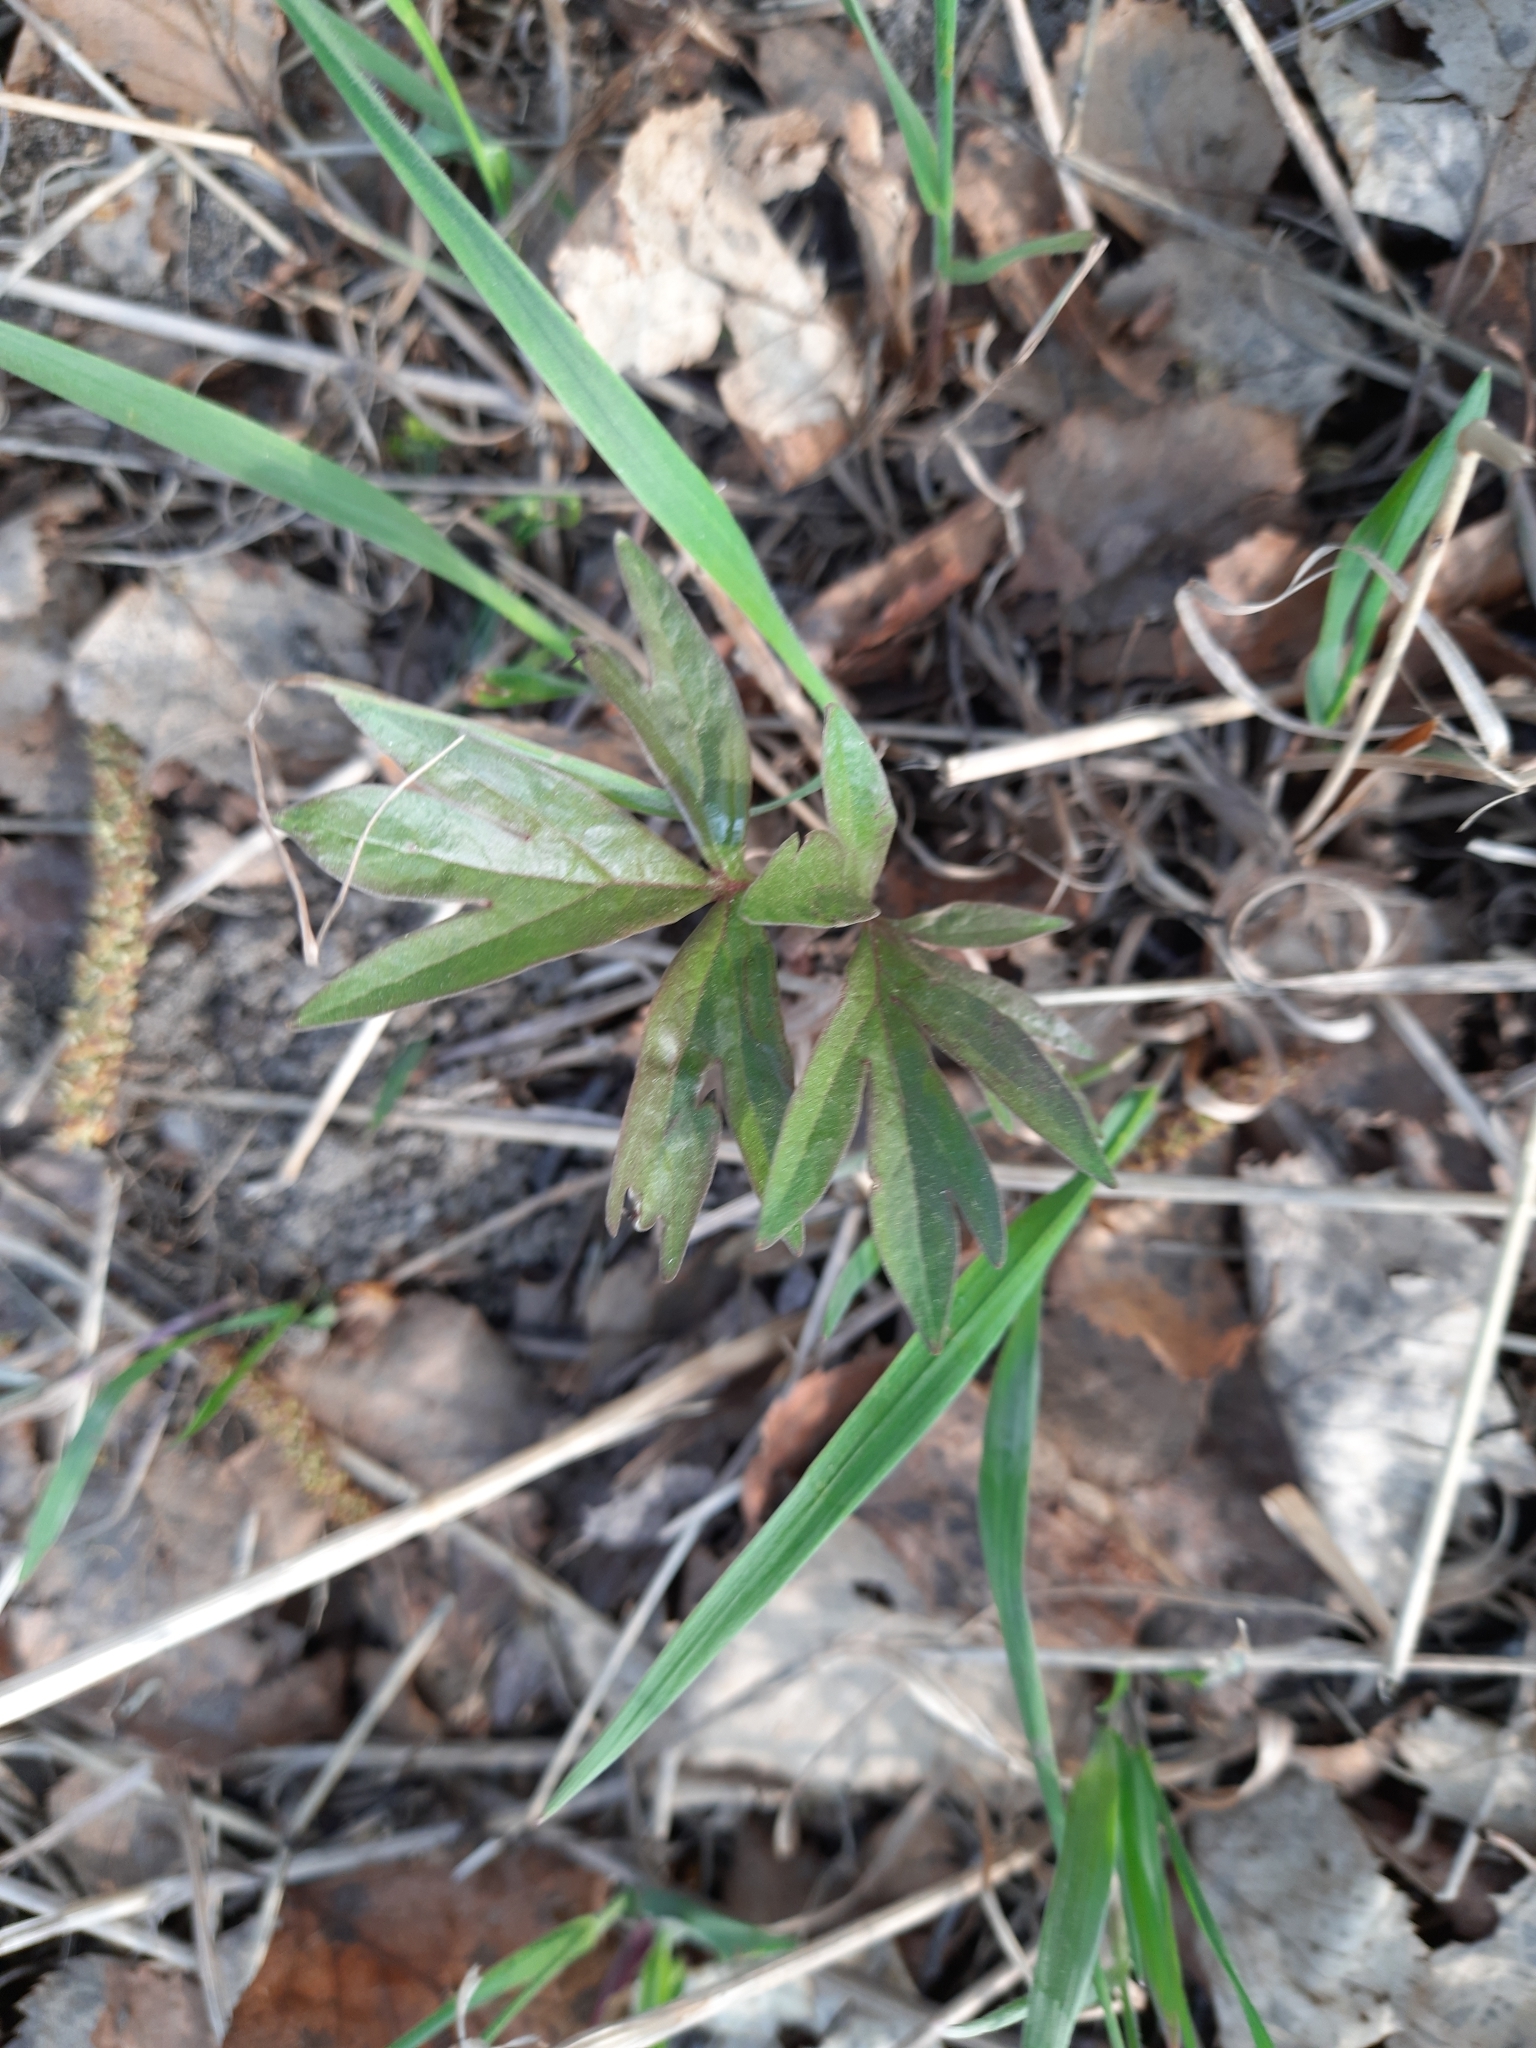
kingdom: Plantae
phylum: Tracheophyta
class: Magnoliopsida
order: Saxifragales
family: Paeoniaceae
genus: Paeonia
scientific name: Paeonia anomala
